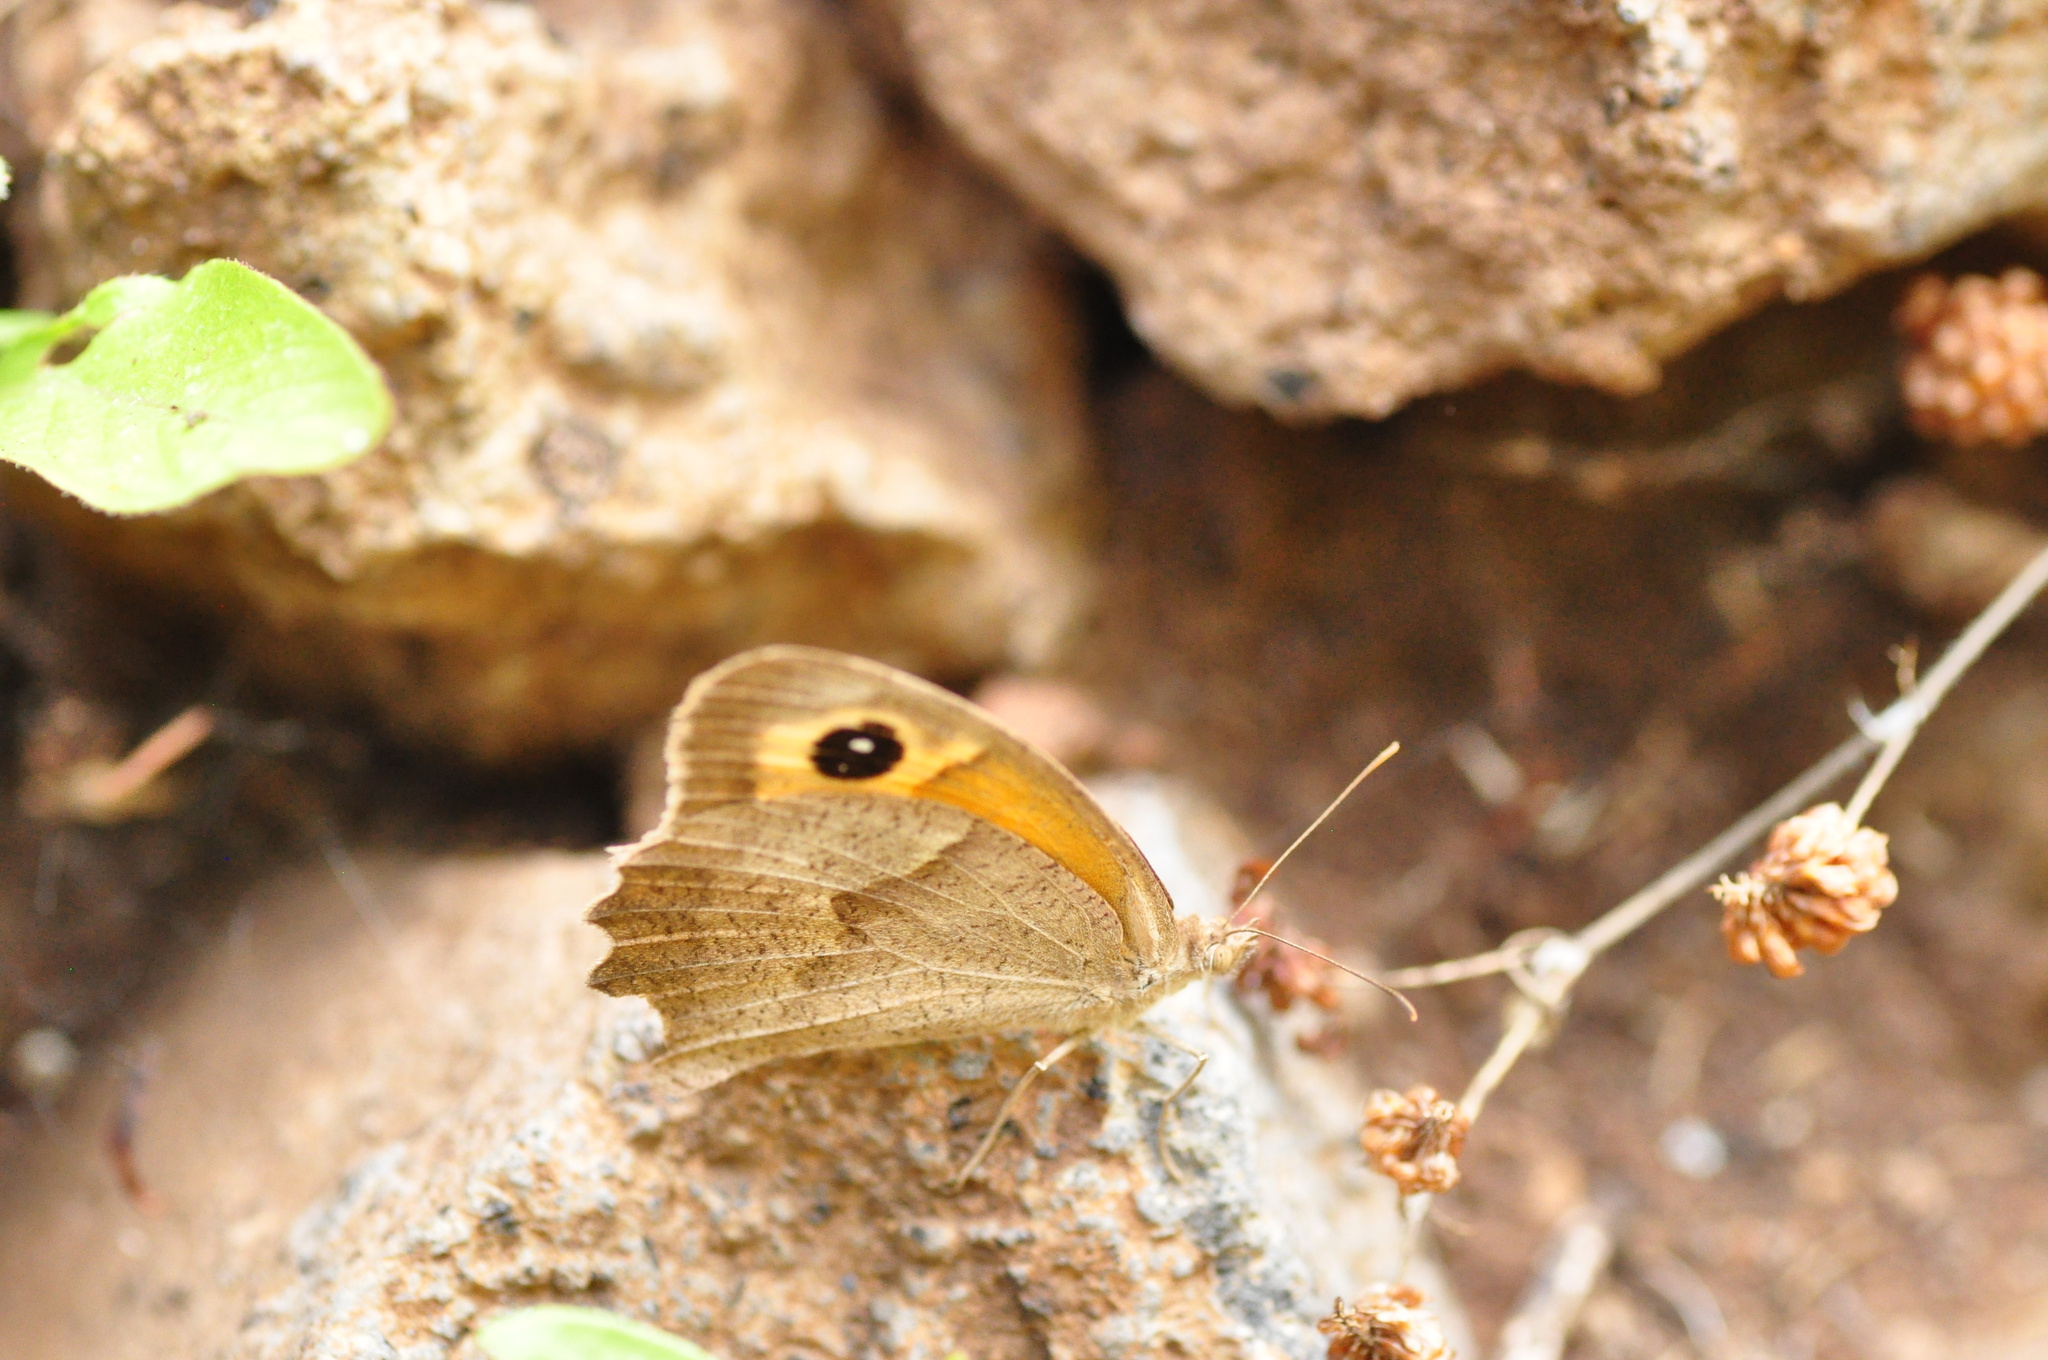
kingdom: Animalia
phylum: Arthropoda
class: Insecta
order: Lepidoptera
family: Nymphalidae
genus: Maniola
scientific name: Maniola jurtina
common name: Meadow brown
